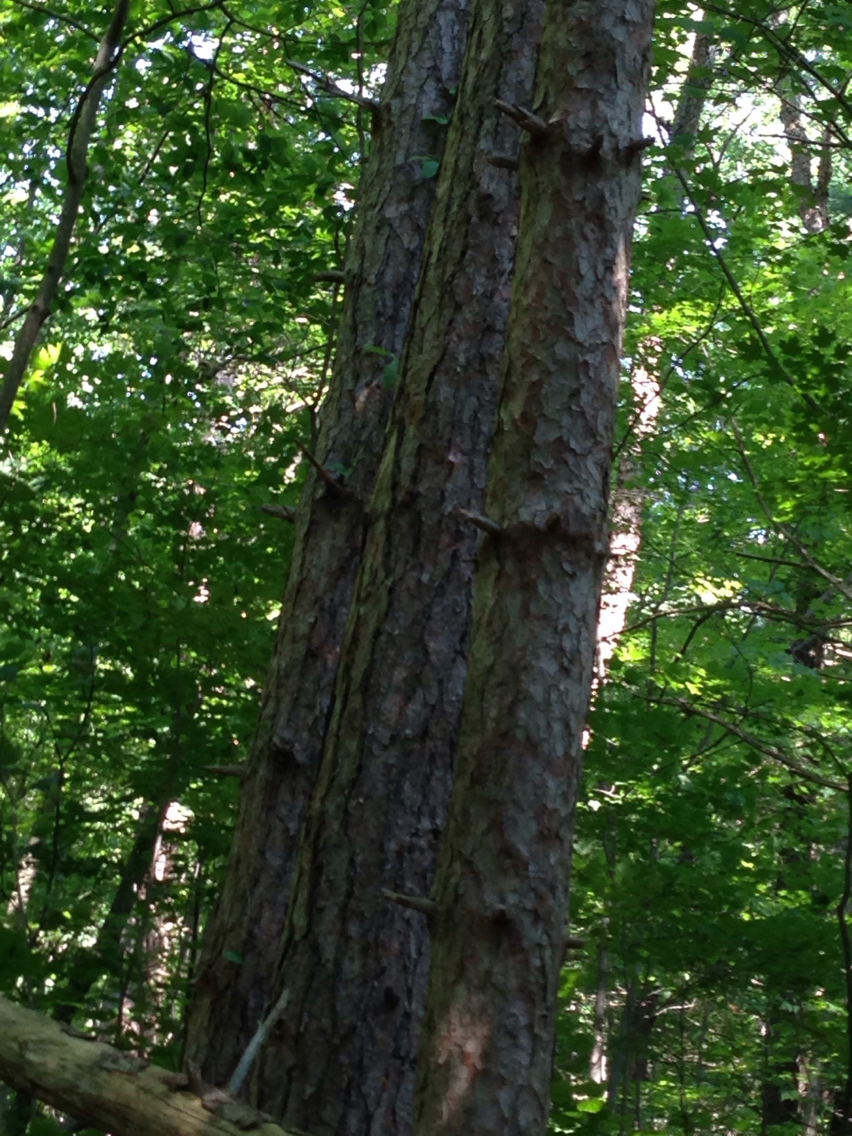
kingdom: Plantae
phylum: Tracheophyta
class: Pinopsida
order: Pinales
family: Pinaceae
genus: Pinus
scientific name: Pinus resinosa
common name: Norway pine
